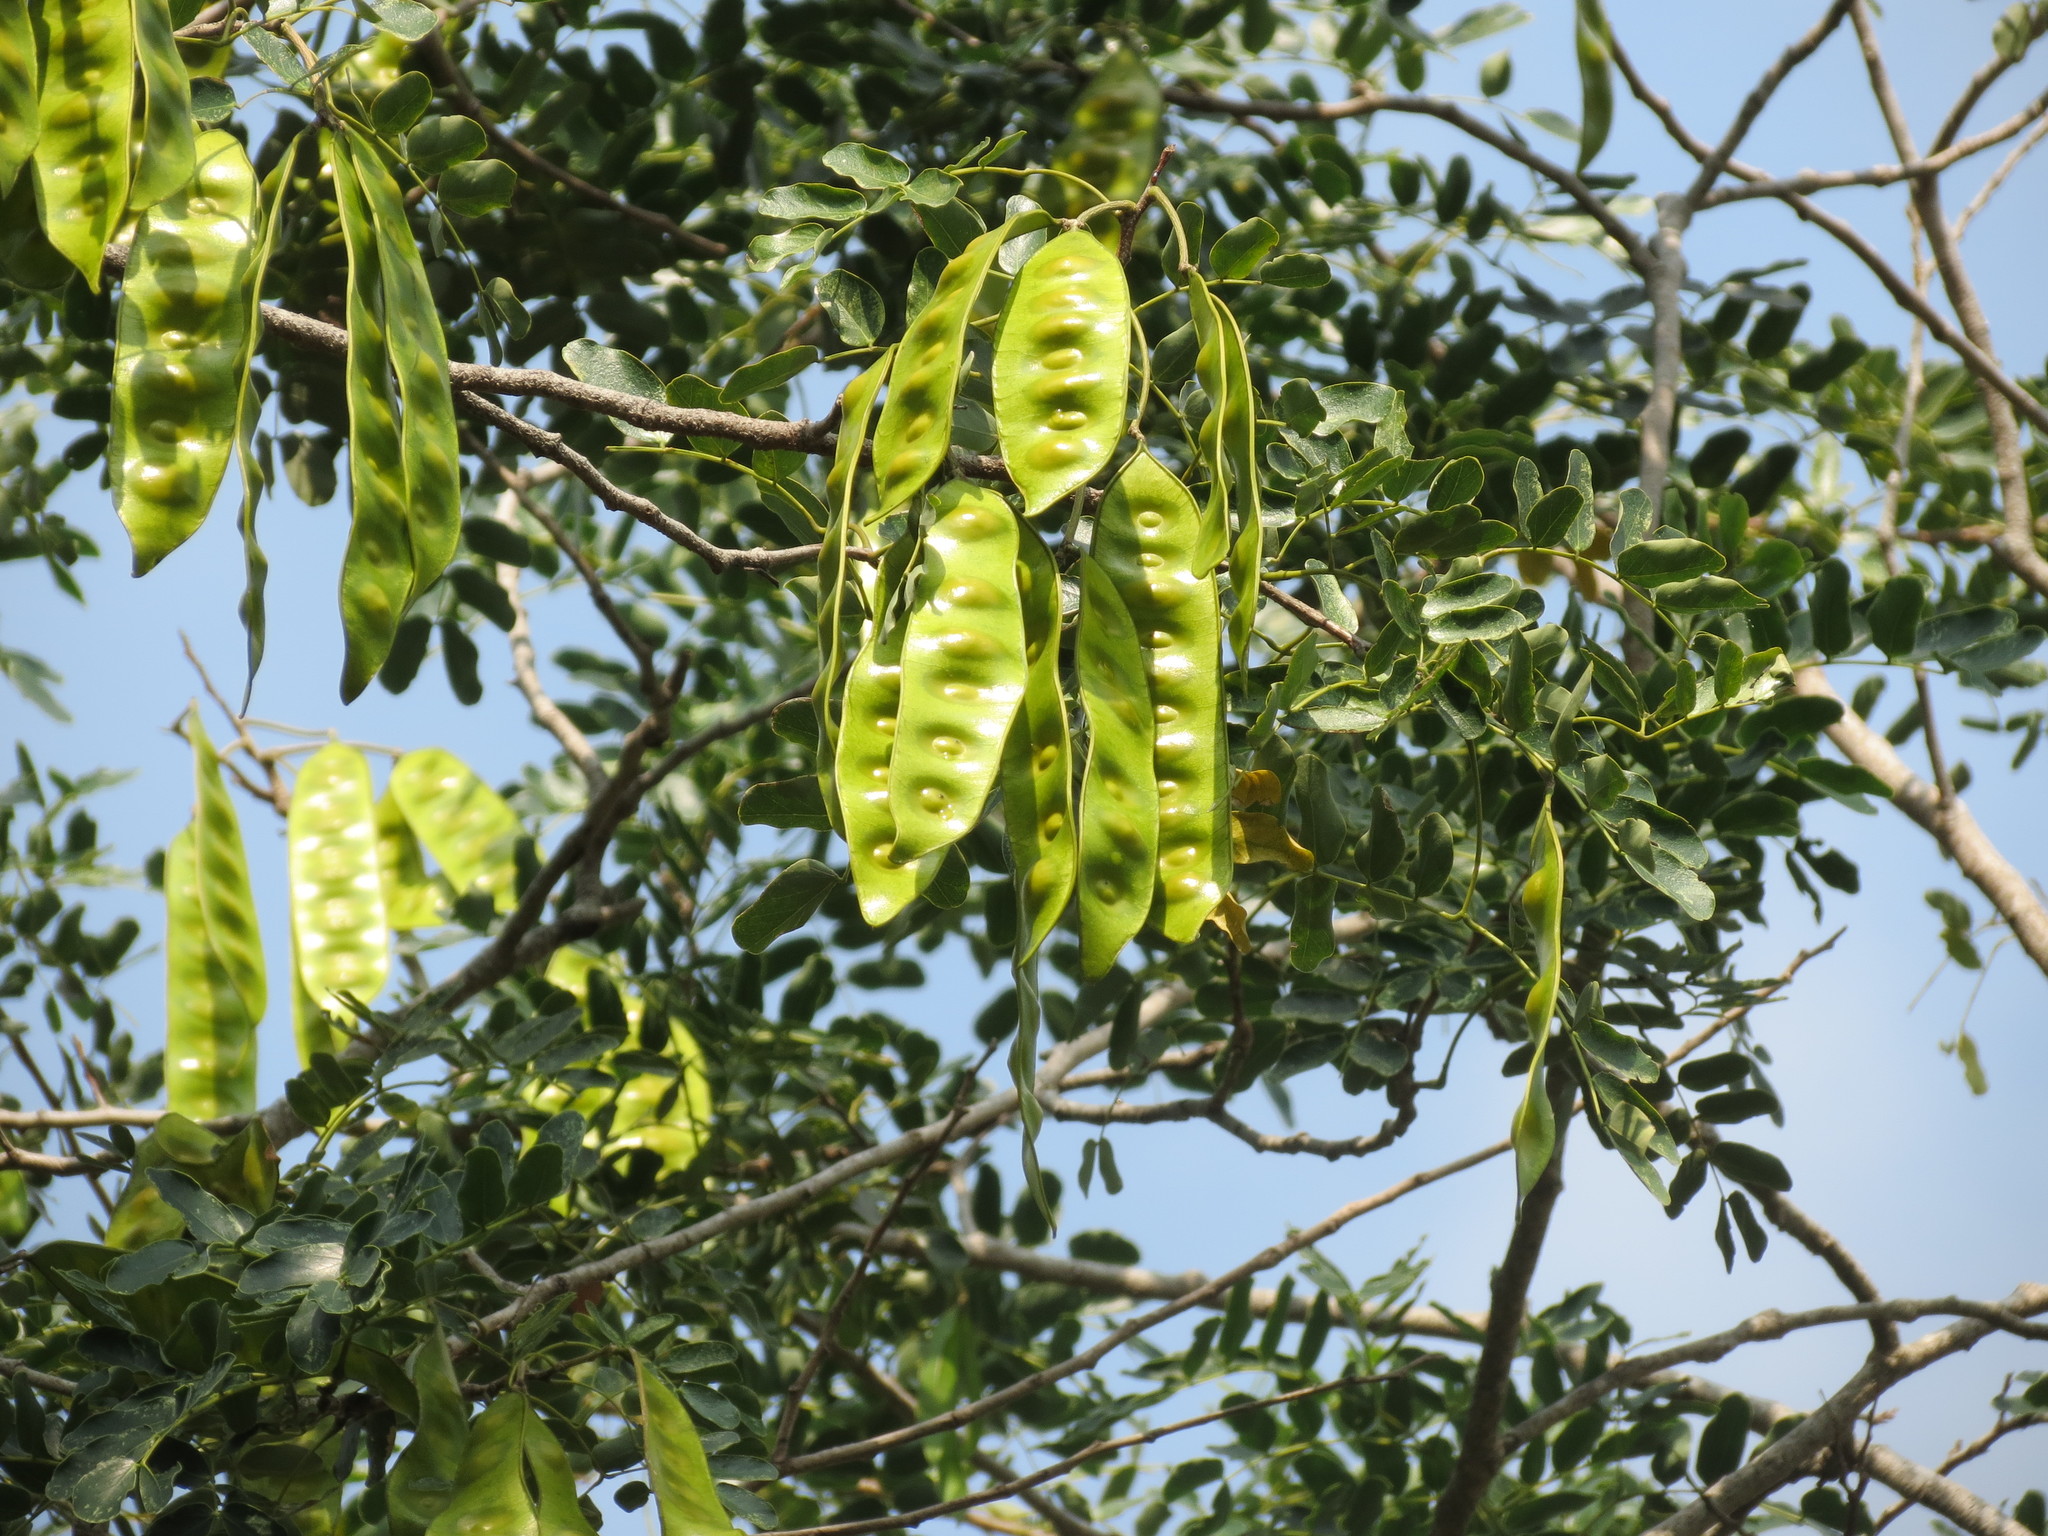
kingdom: Plantae
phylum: Tracheophyta
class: Magnoliopsida
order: Fabales
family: Fabaceae
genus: Albizia
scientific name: Albizia lebbeck
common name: Woman's tongue
